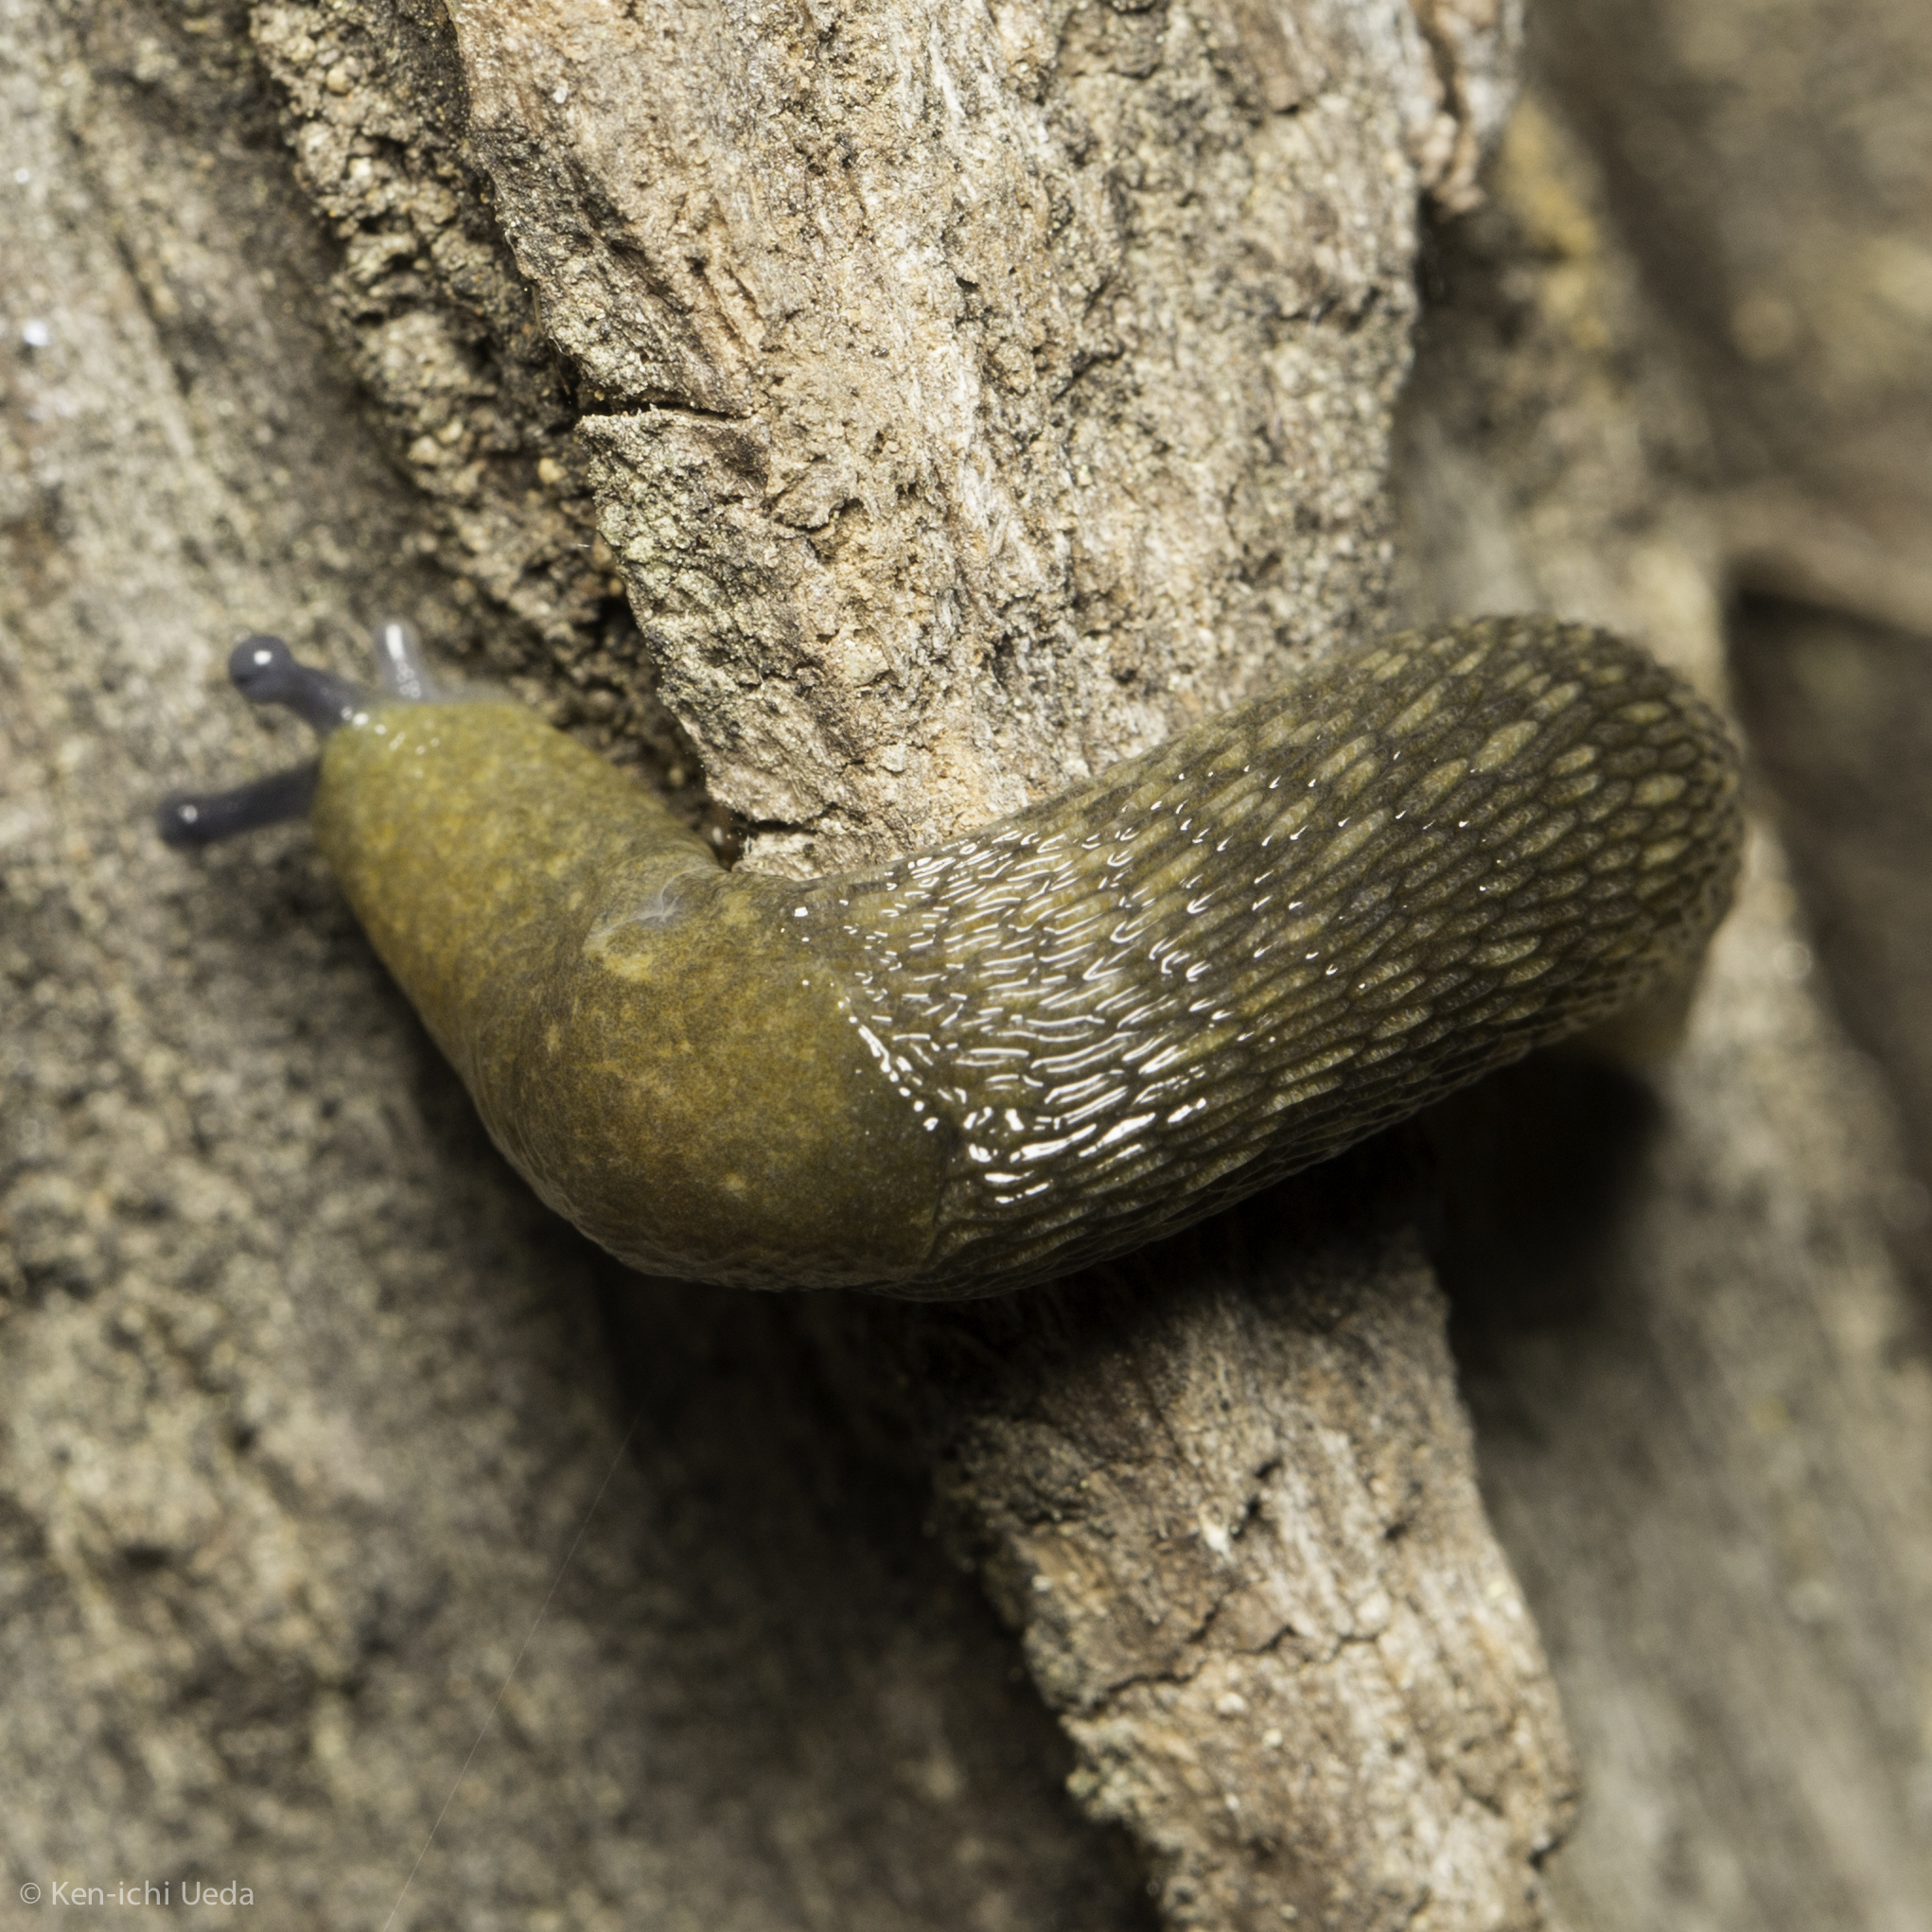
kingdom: Animalia
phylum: Mollusca
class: Gastropoda
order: Stylommatophora
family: Limacidae
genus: Limacus
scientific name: Limacus flavus
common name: Yellow gardenslug
